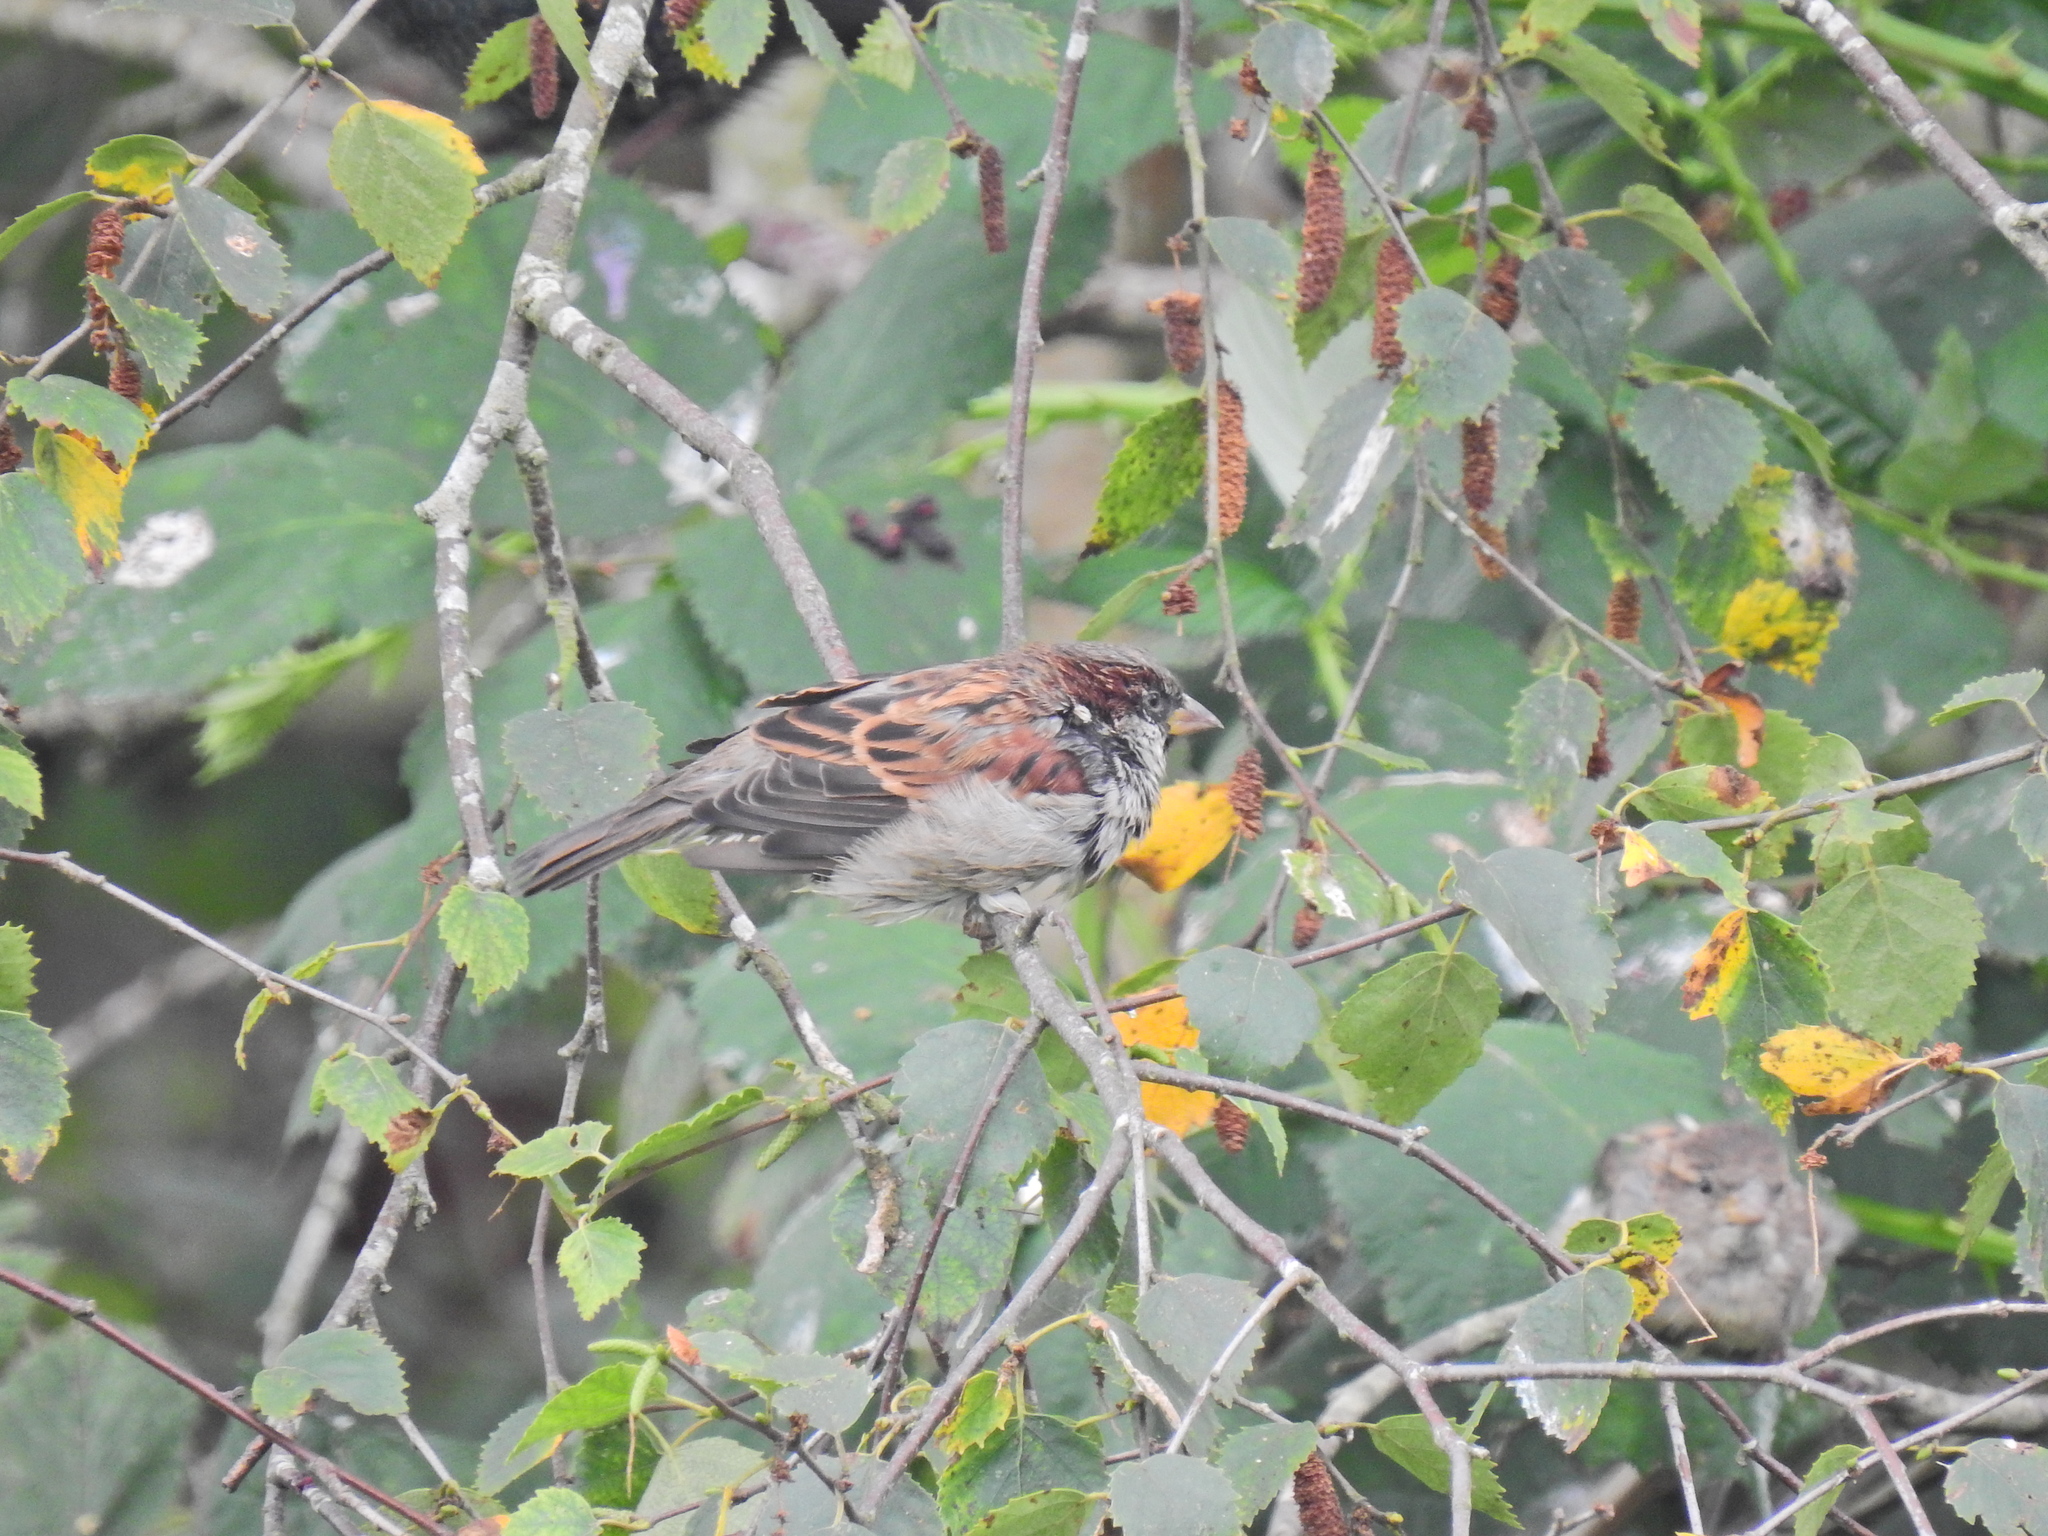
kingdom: Animalia
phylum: Chordata
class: Aves
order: Passeriformes
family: Passeridae
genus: Passer
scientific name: Passer domesticus
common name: House sparrow
